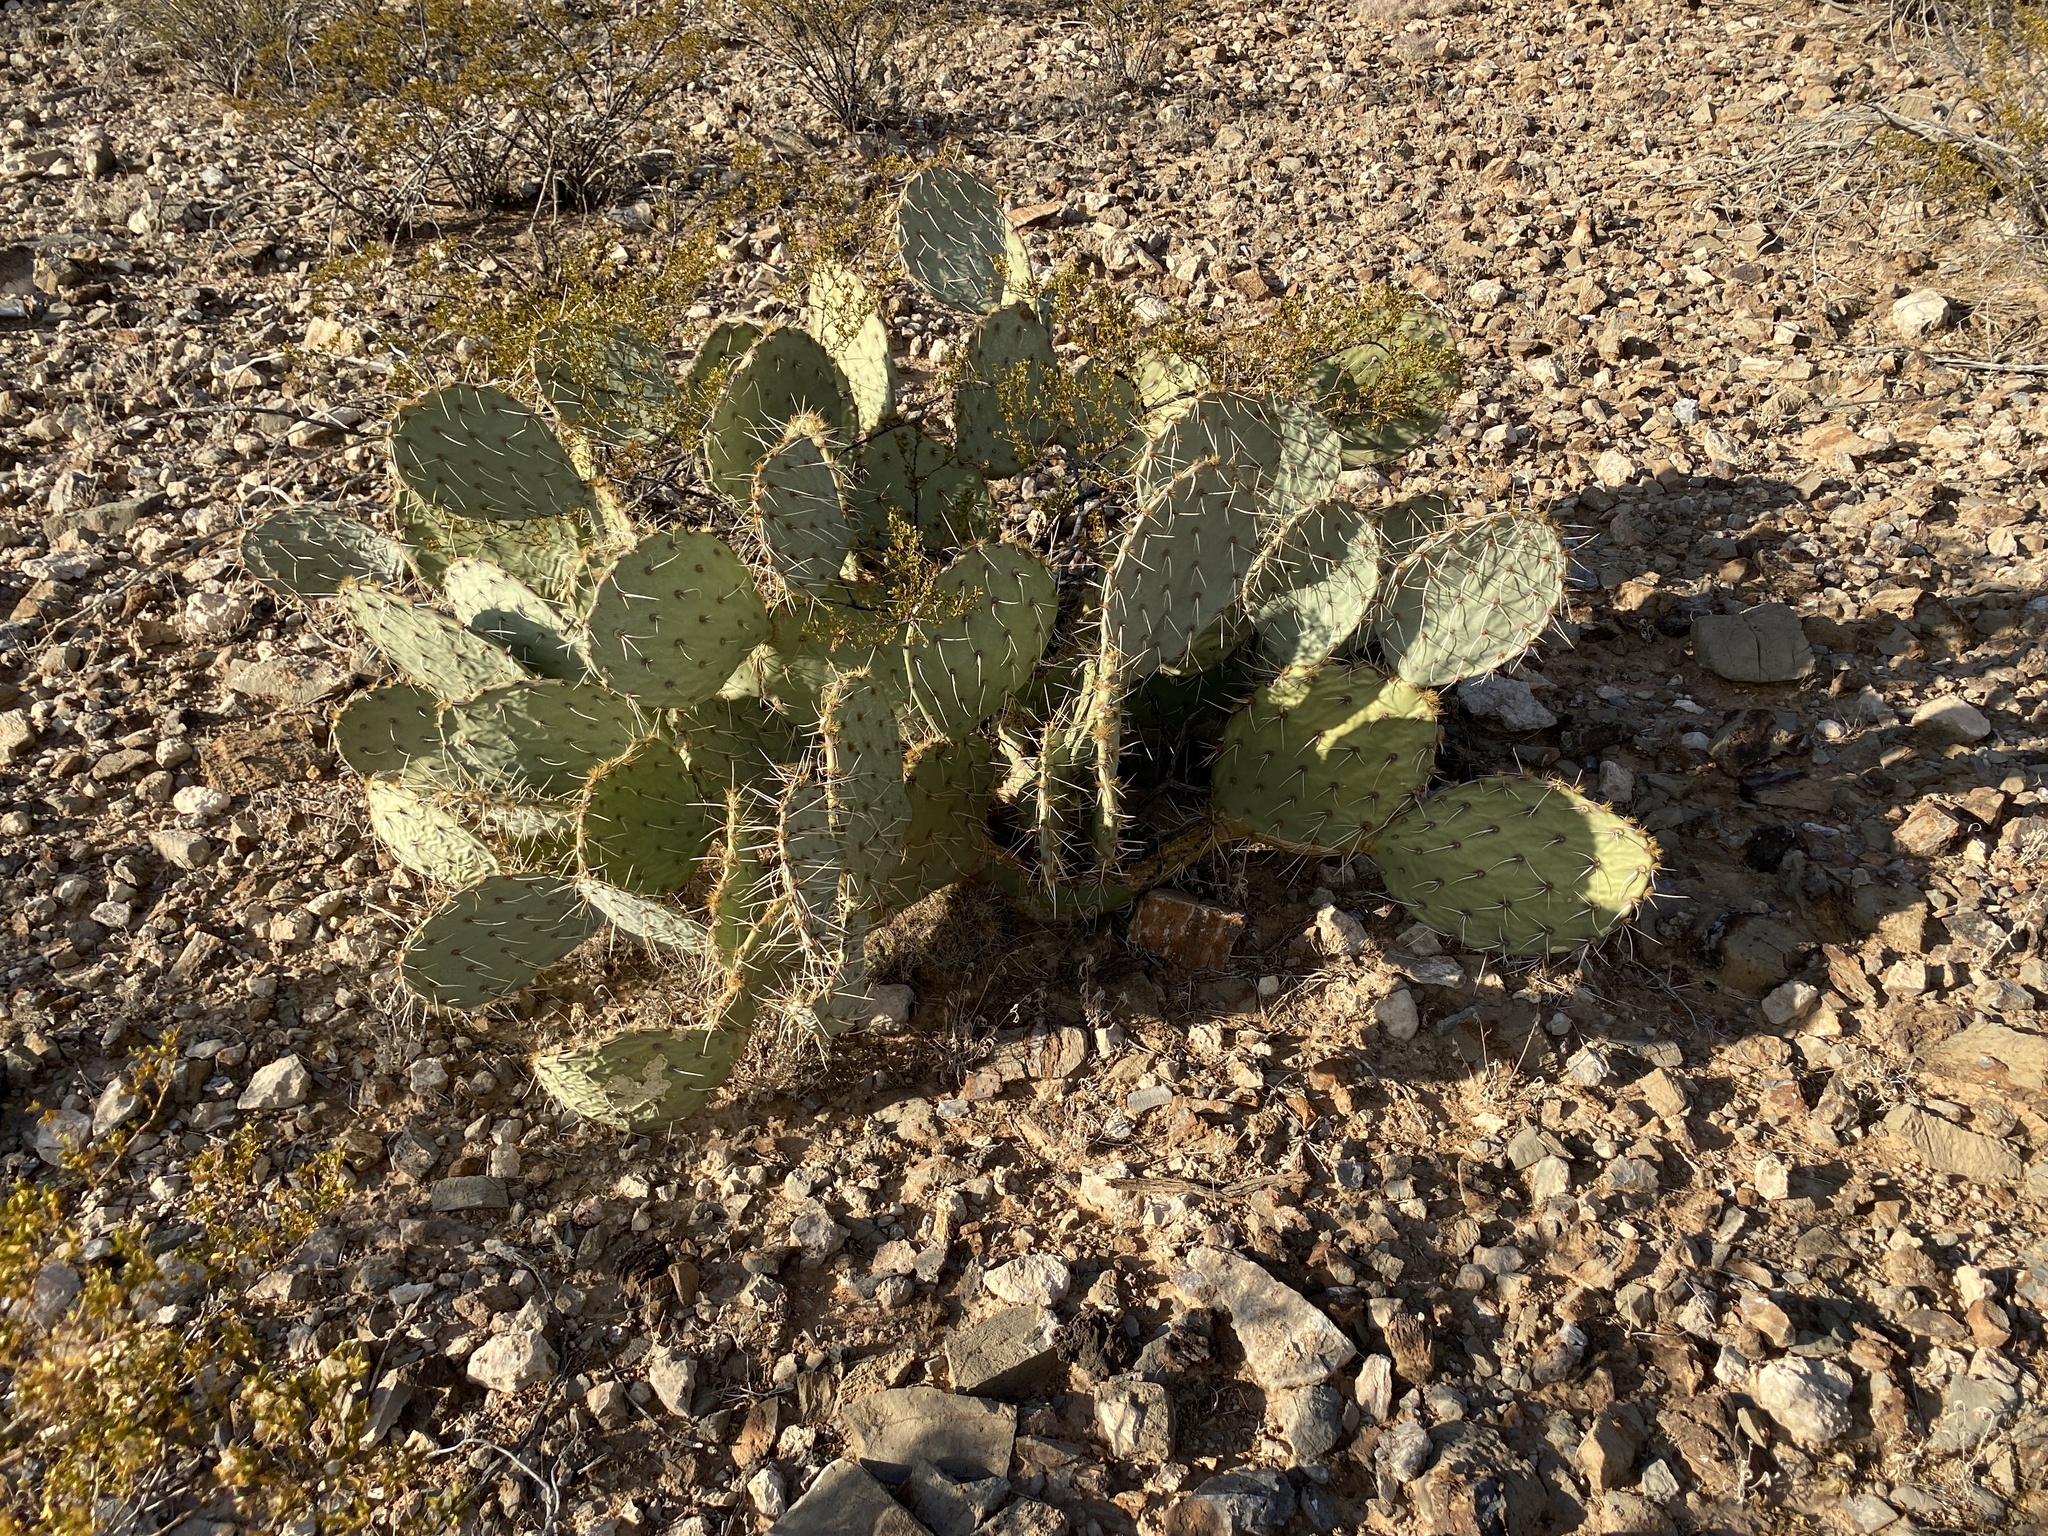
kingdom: Plantae
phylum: Tracheophyta
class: Magnoliopsida
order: Caryophyllales
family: Cactaceae
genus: Opuntia
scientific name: Opuntia engelmannii
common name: Cactus-apple
